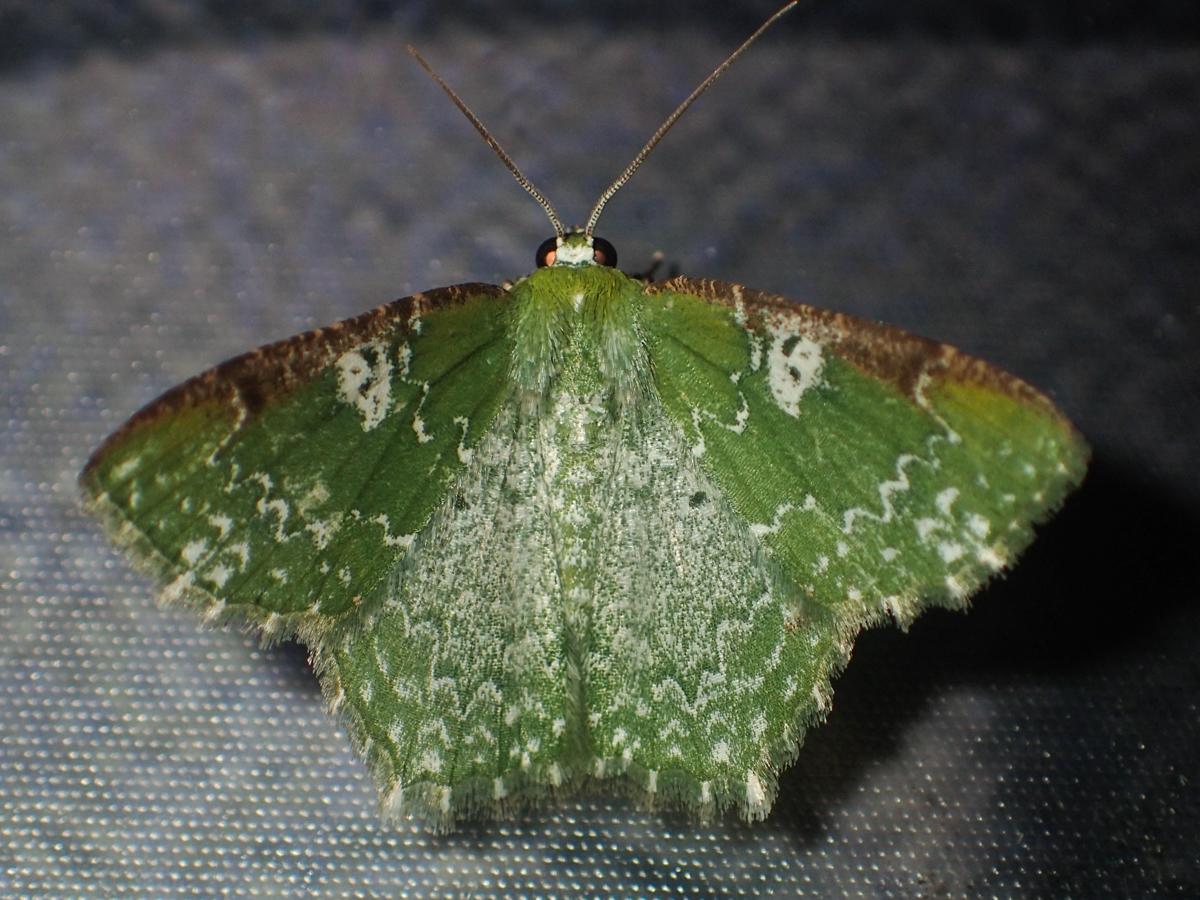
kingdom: Animalia
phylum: Arthropoda
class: Insecta
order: Lepidoptera
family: Geometridae
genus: Eucyclodes
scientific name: Eucyclodes albisparsa
